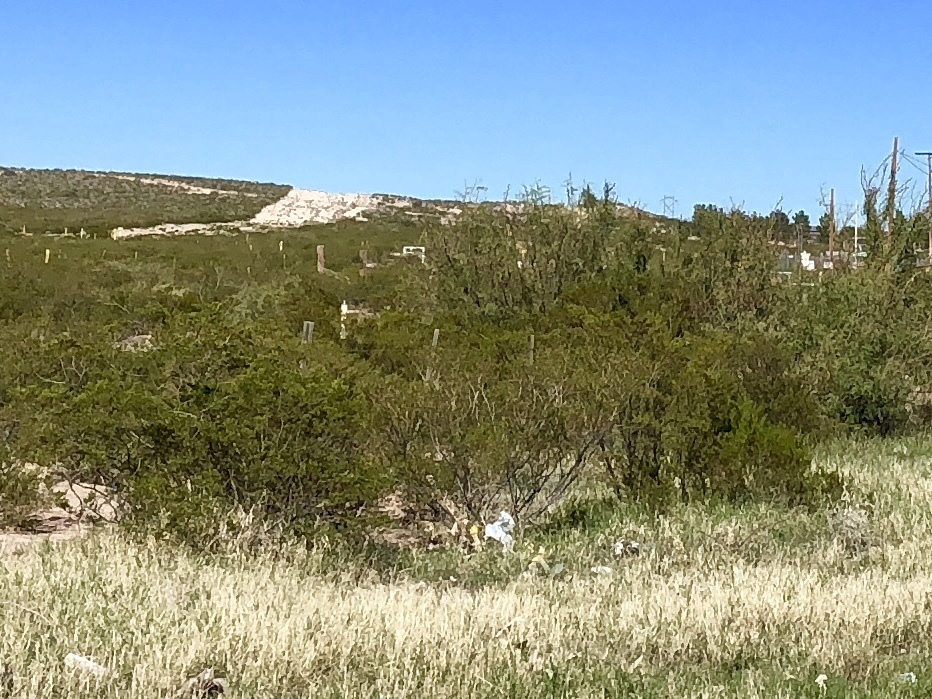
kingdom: Plantae
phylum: Tracheophyta
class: Magnoliopsida
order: Zygophyllales
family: Zygophyllaceae
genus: Larrea
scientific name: Larrea tridentata
